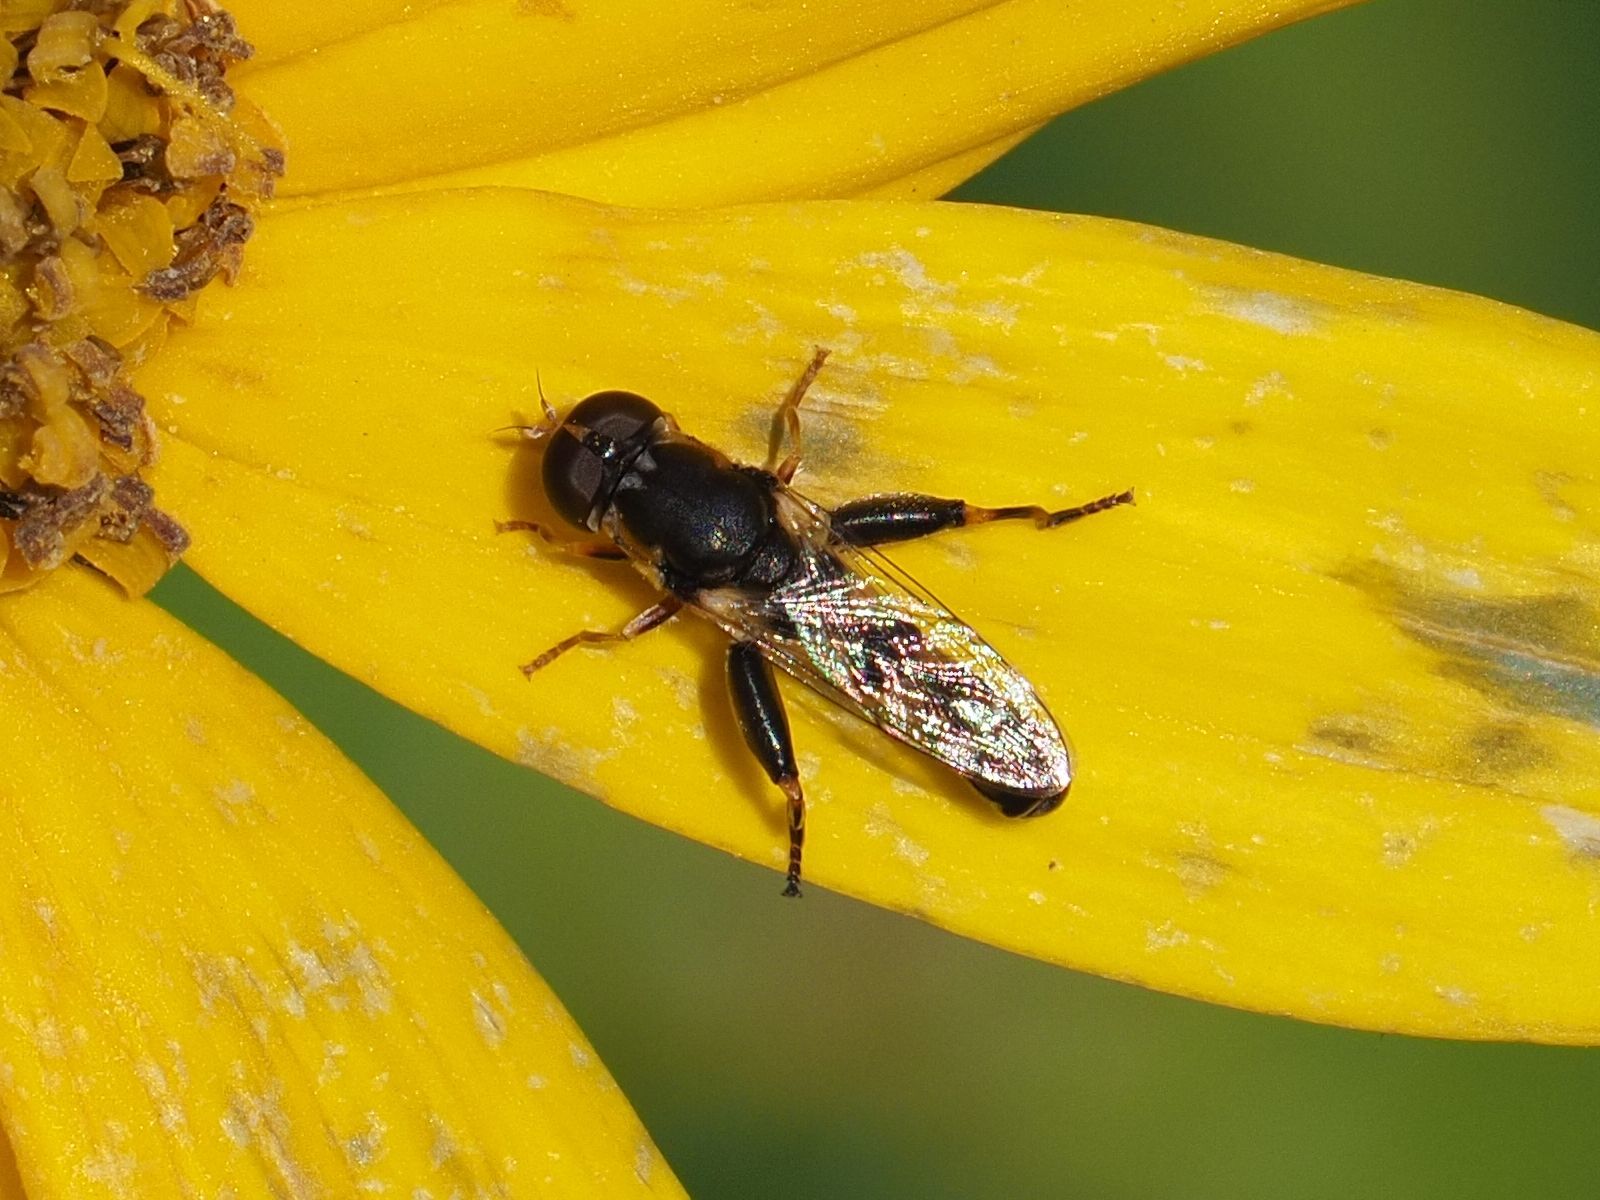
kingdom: Animalia
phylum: Arthropoda
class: Insecta
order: Diptera
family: Syrphidae
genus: Syritta
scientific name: Syritta pipiens
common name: Hover fly
